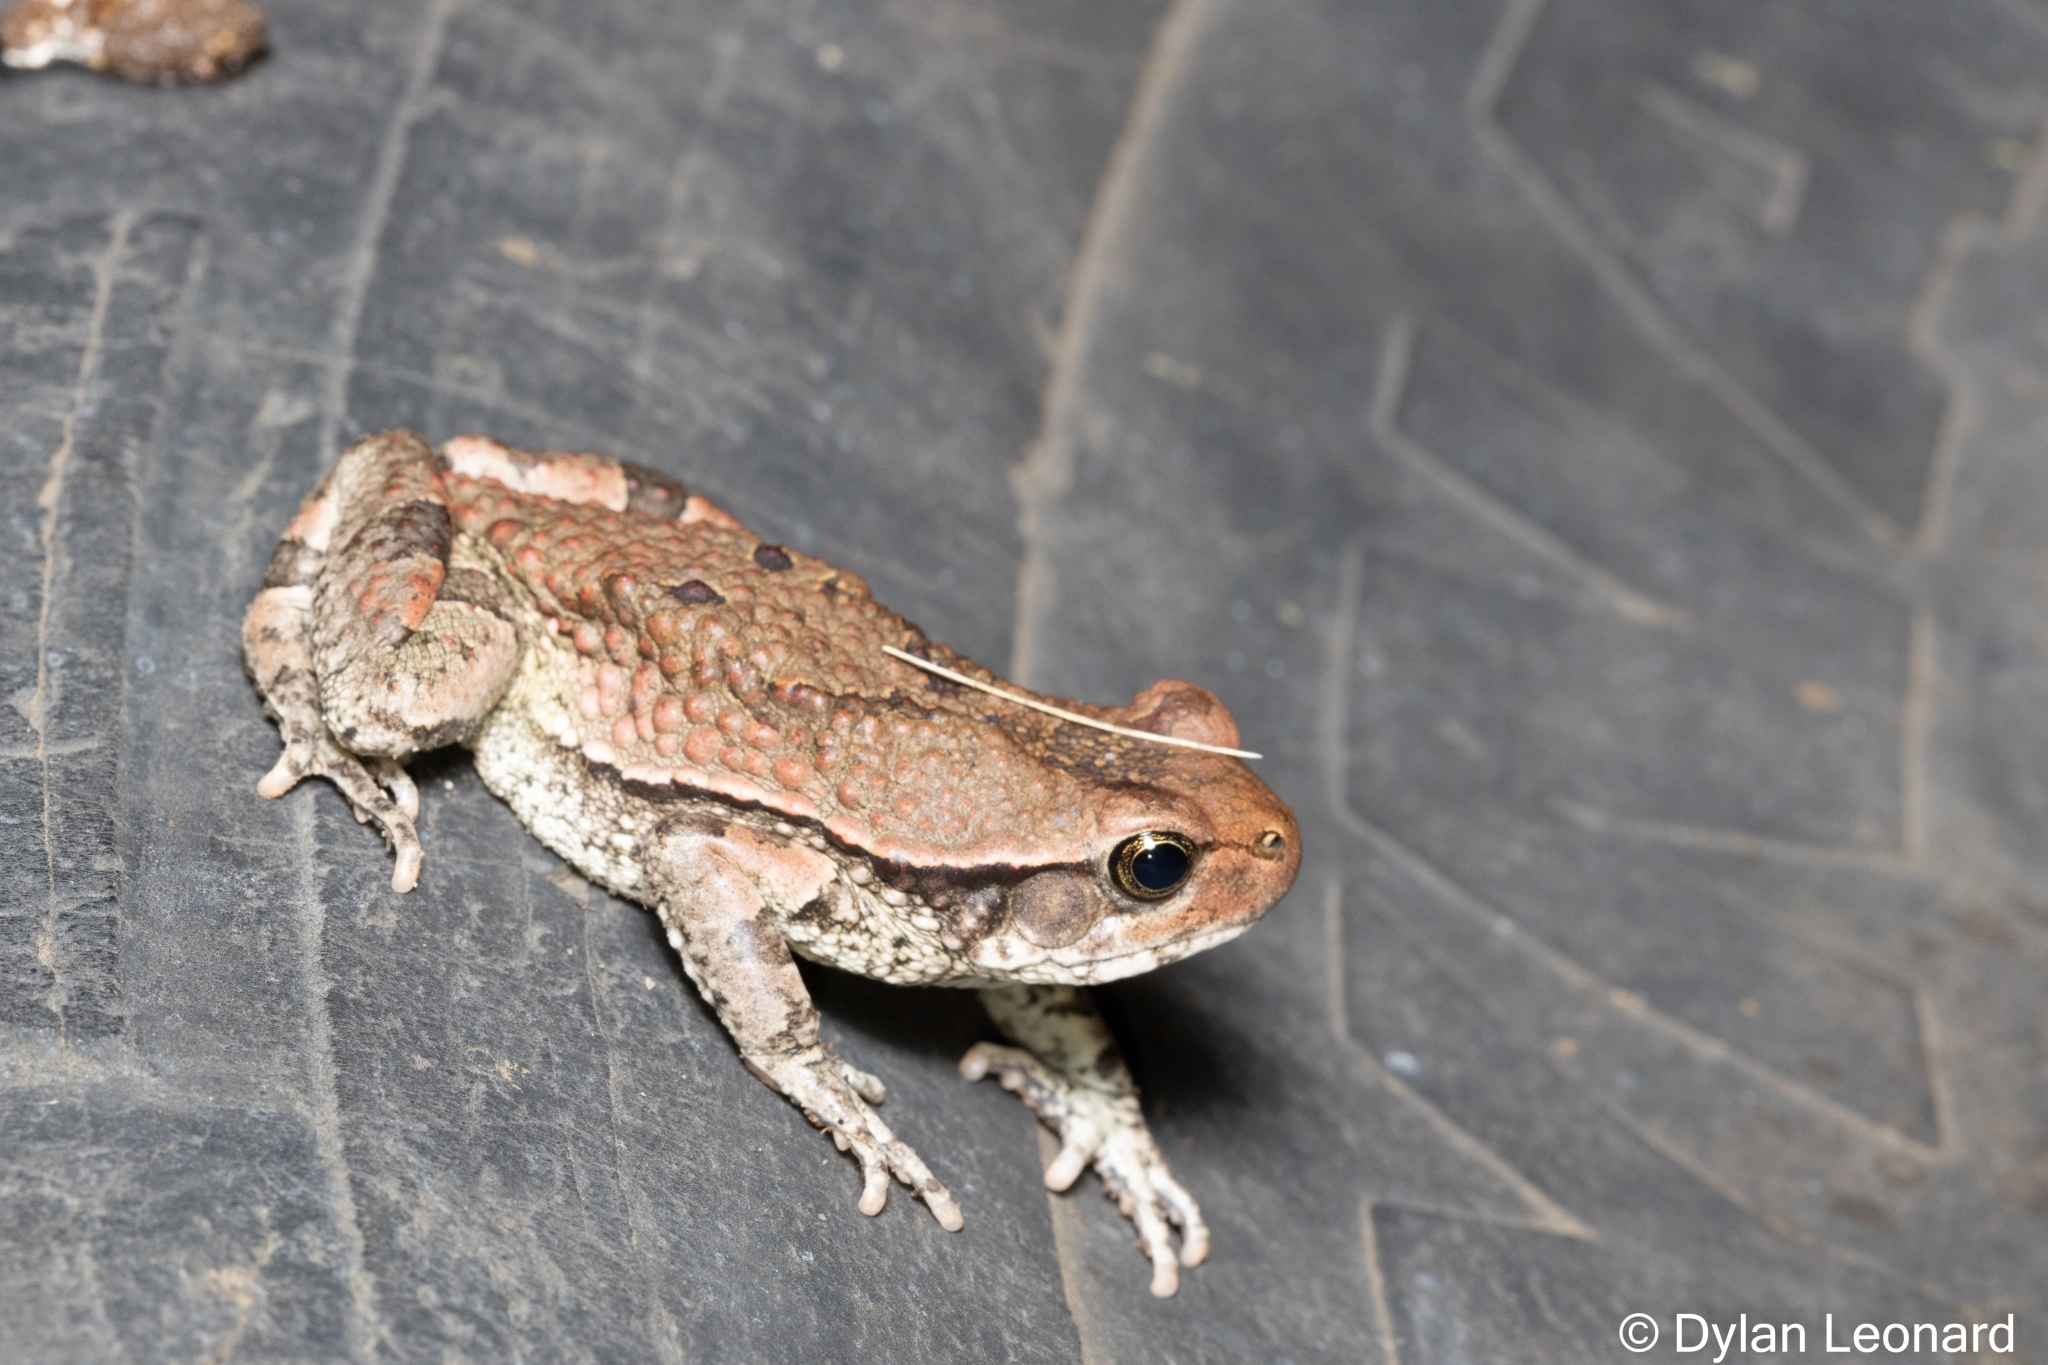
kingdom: Animalia
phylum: Chordata
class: Amphibia
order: Anura
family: Bufonidae
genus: Schismaderma
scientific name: Schismaderma carens
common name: African split-skin toad
